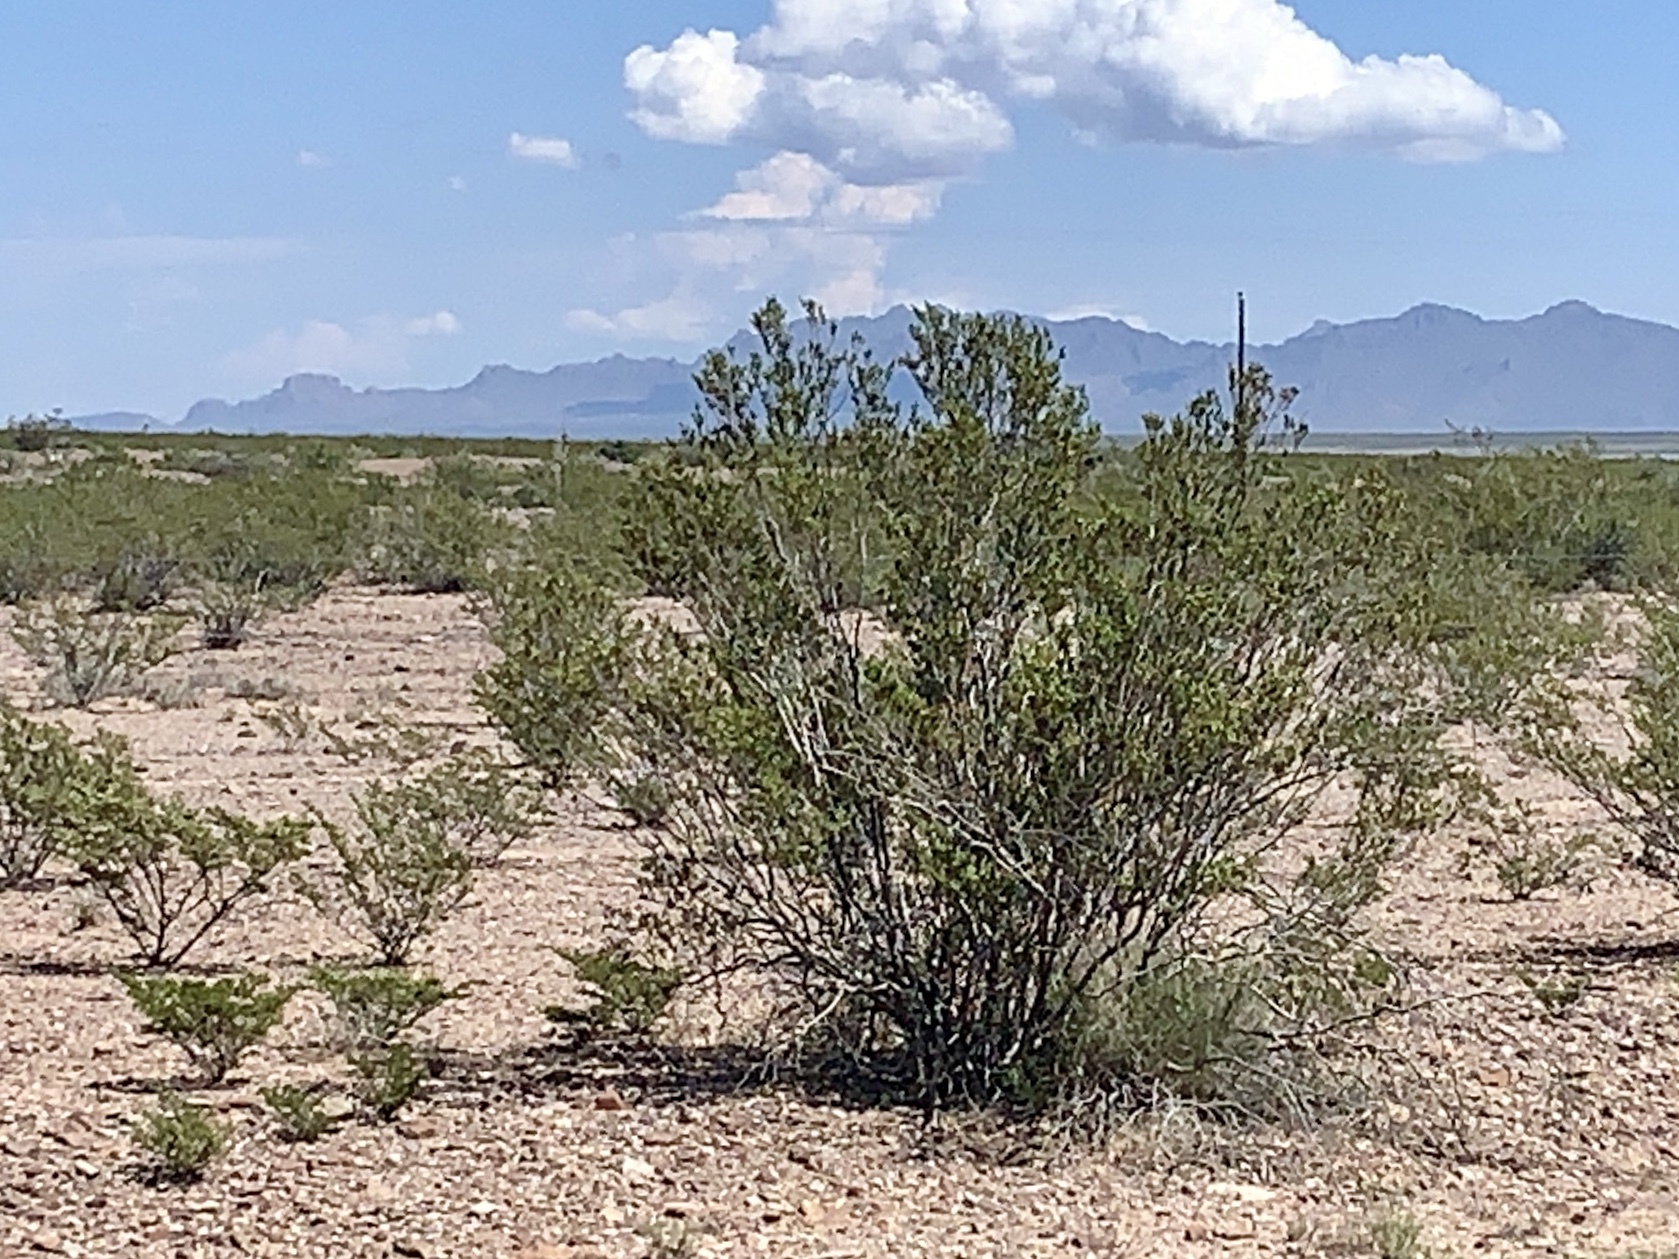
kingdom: Plantae
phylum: Tracheophyta
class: Magnoliopsida
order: Zygophyllales
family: Zygophyllaceae
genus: Larrea
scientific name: Larrea tridentata
